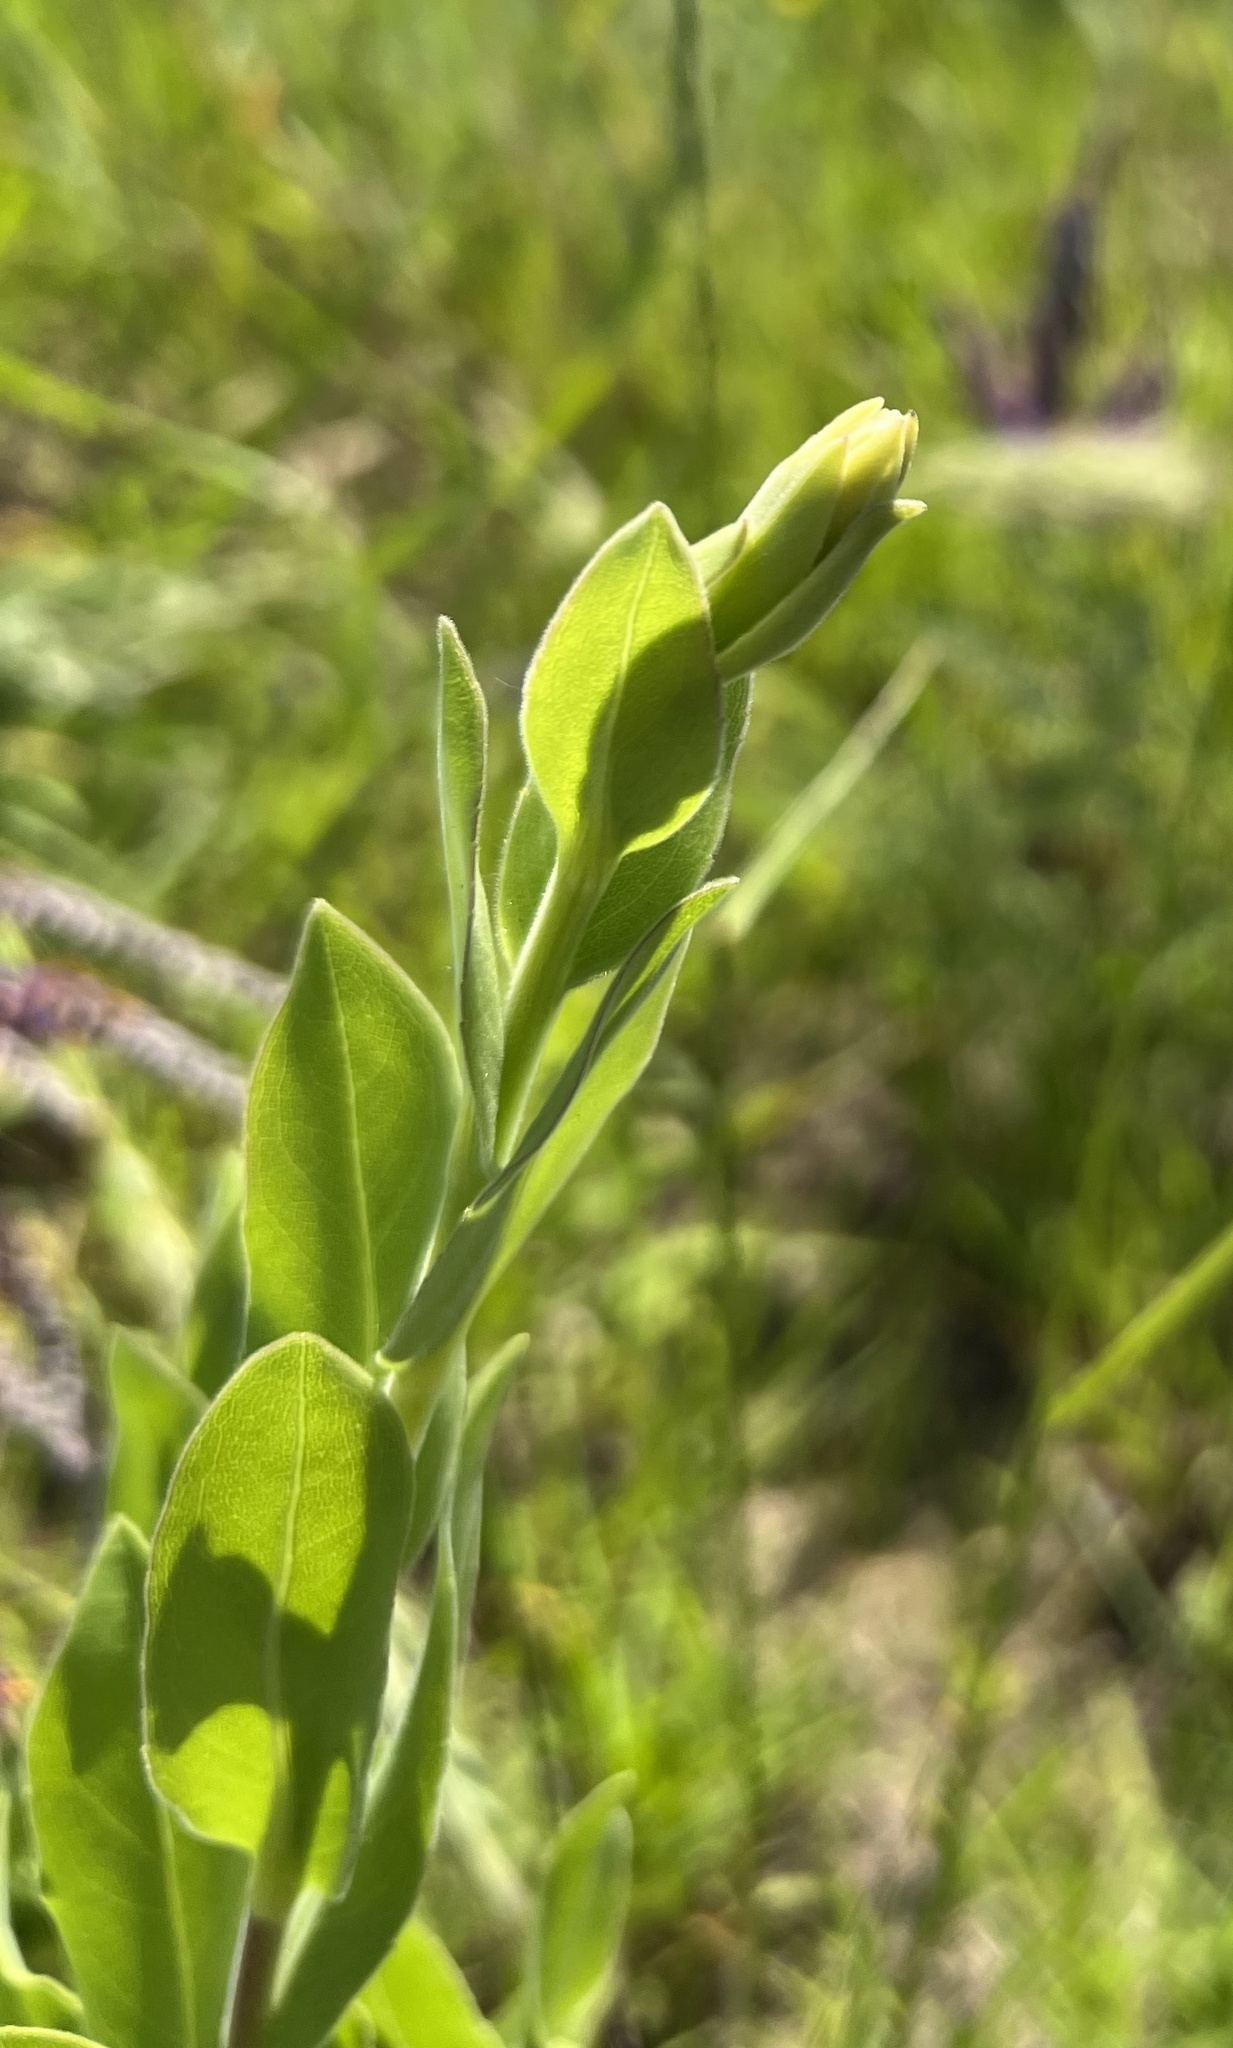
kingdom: Plantae
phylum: Tracheophyta
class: Magnoliopsida
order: Asterales
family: Asteraceae
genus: Solidago
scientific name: Solidago rigida
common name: Rigid goldenrod
